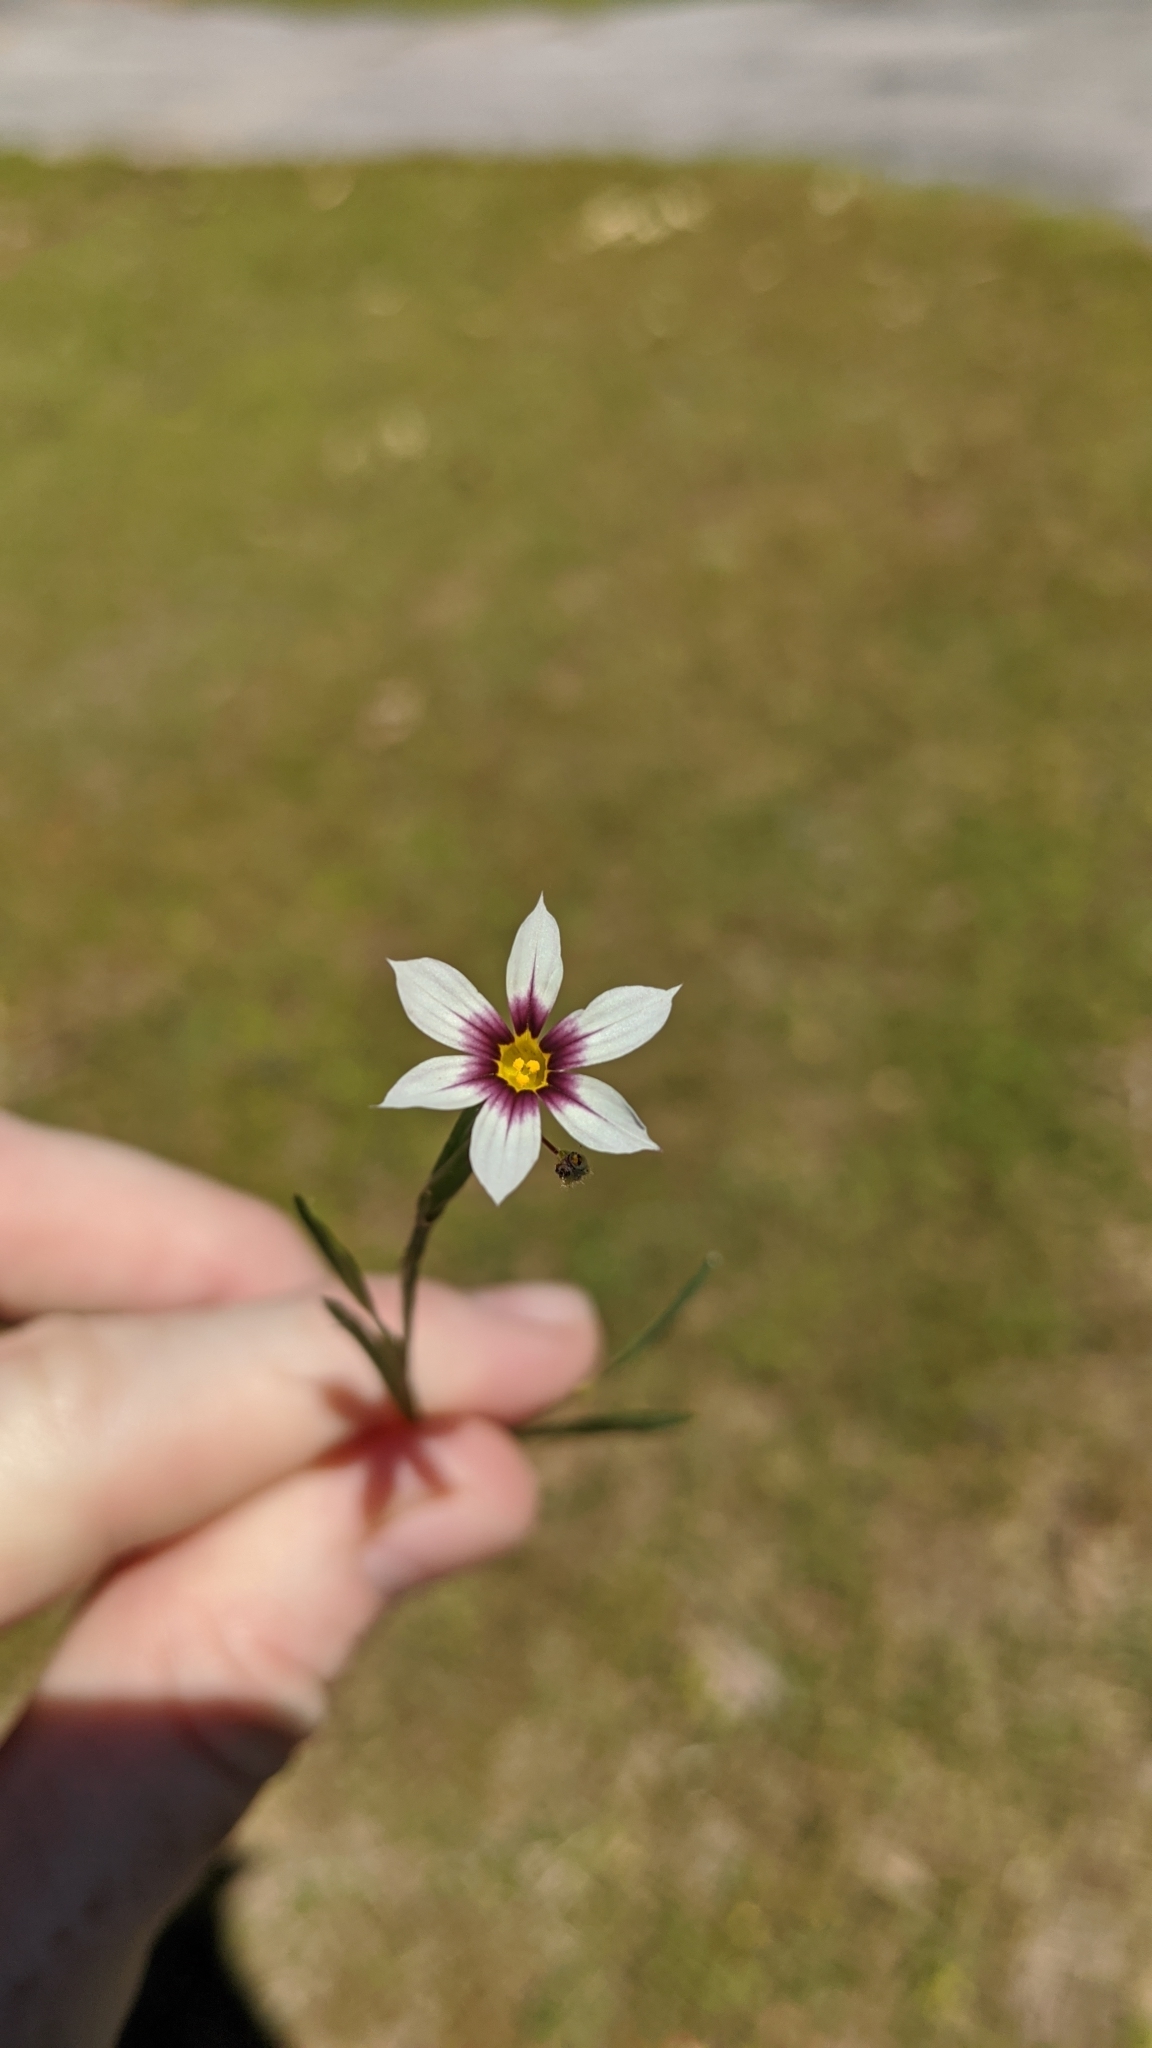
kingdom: Plantae
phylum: Tracheophyta
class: Liliopsida
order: Asparagales
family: Iridaceae
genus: Sisyrinchium
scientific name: Sisyrinchium micranthum
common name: Bermuda pigroot
